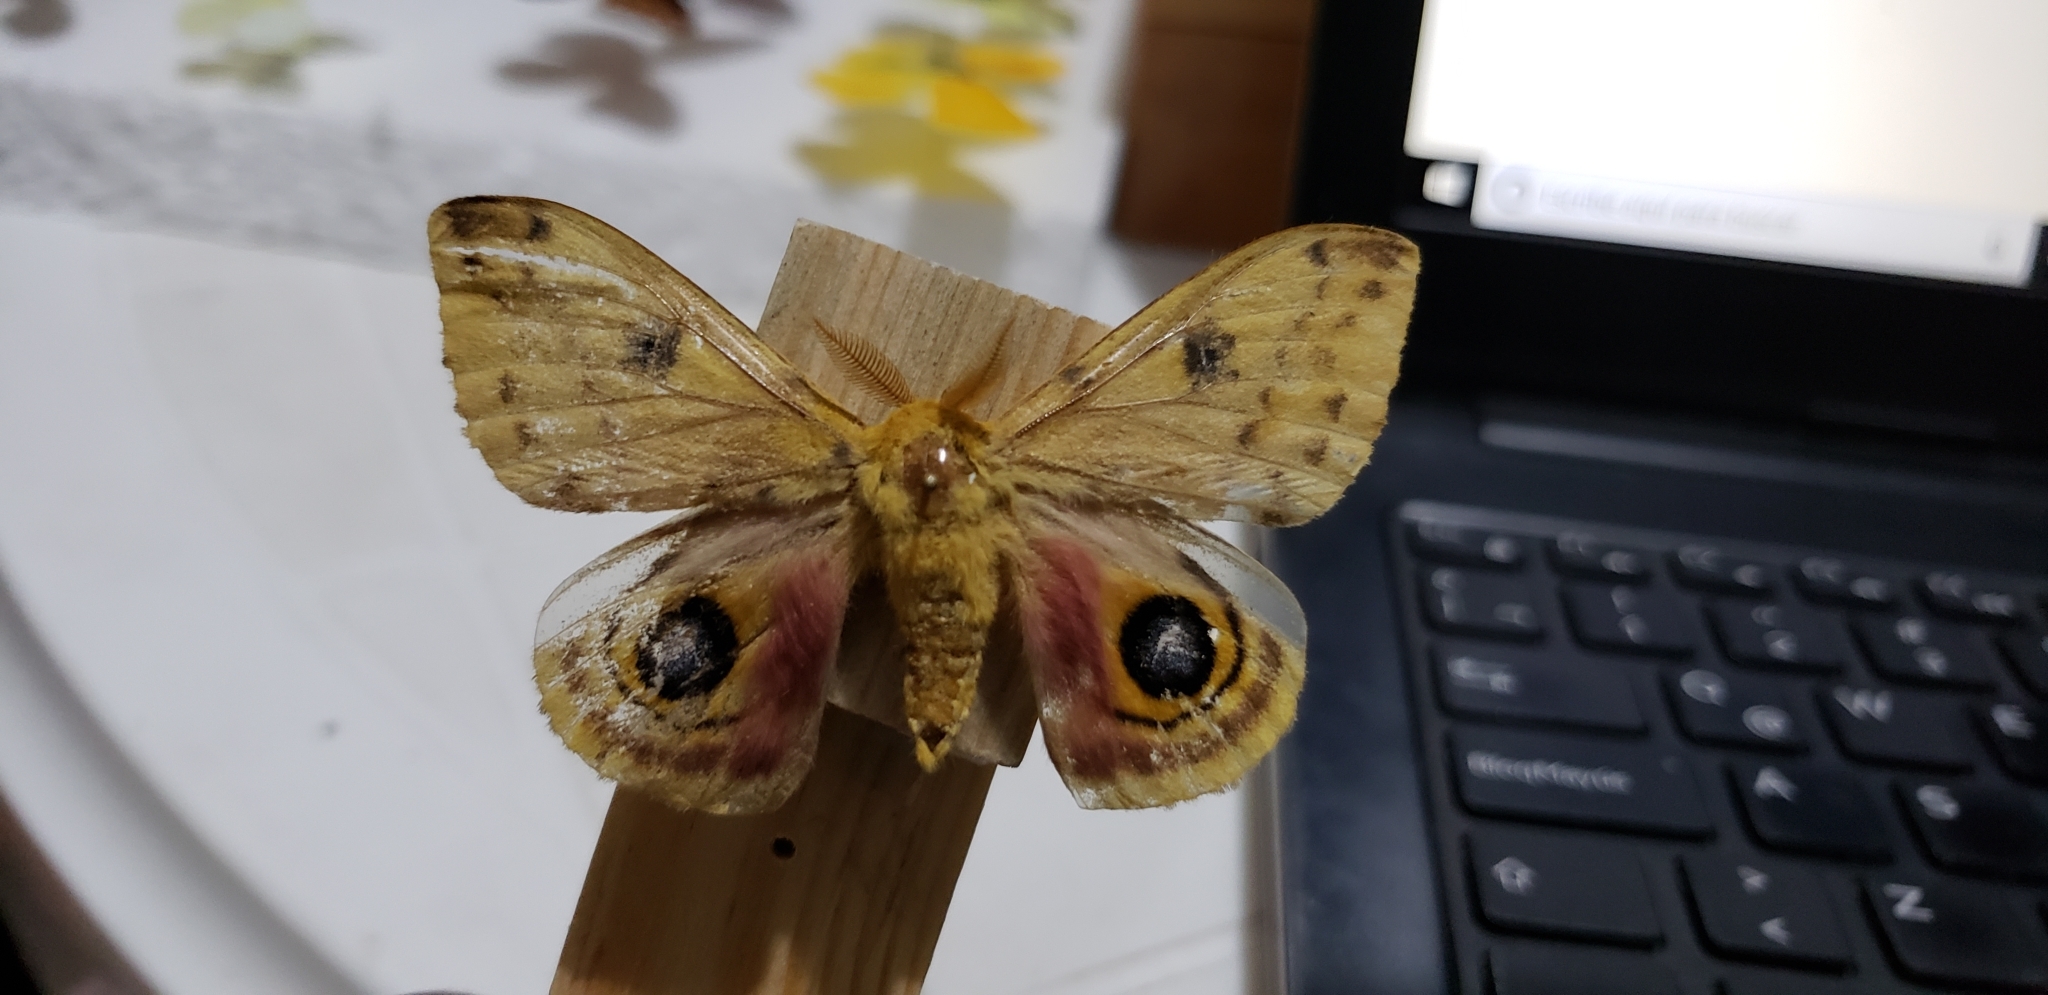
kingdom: Animalia
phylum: Arthropoda
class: Insecta
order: Lepidoptera
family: Saturniidae
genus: Automeris
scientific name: Automeris io
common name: Io moth
